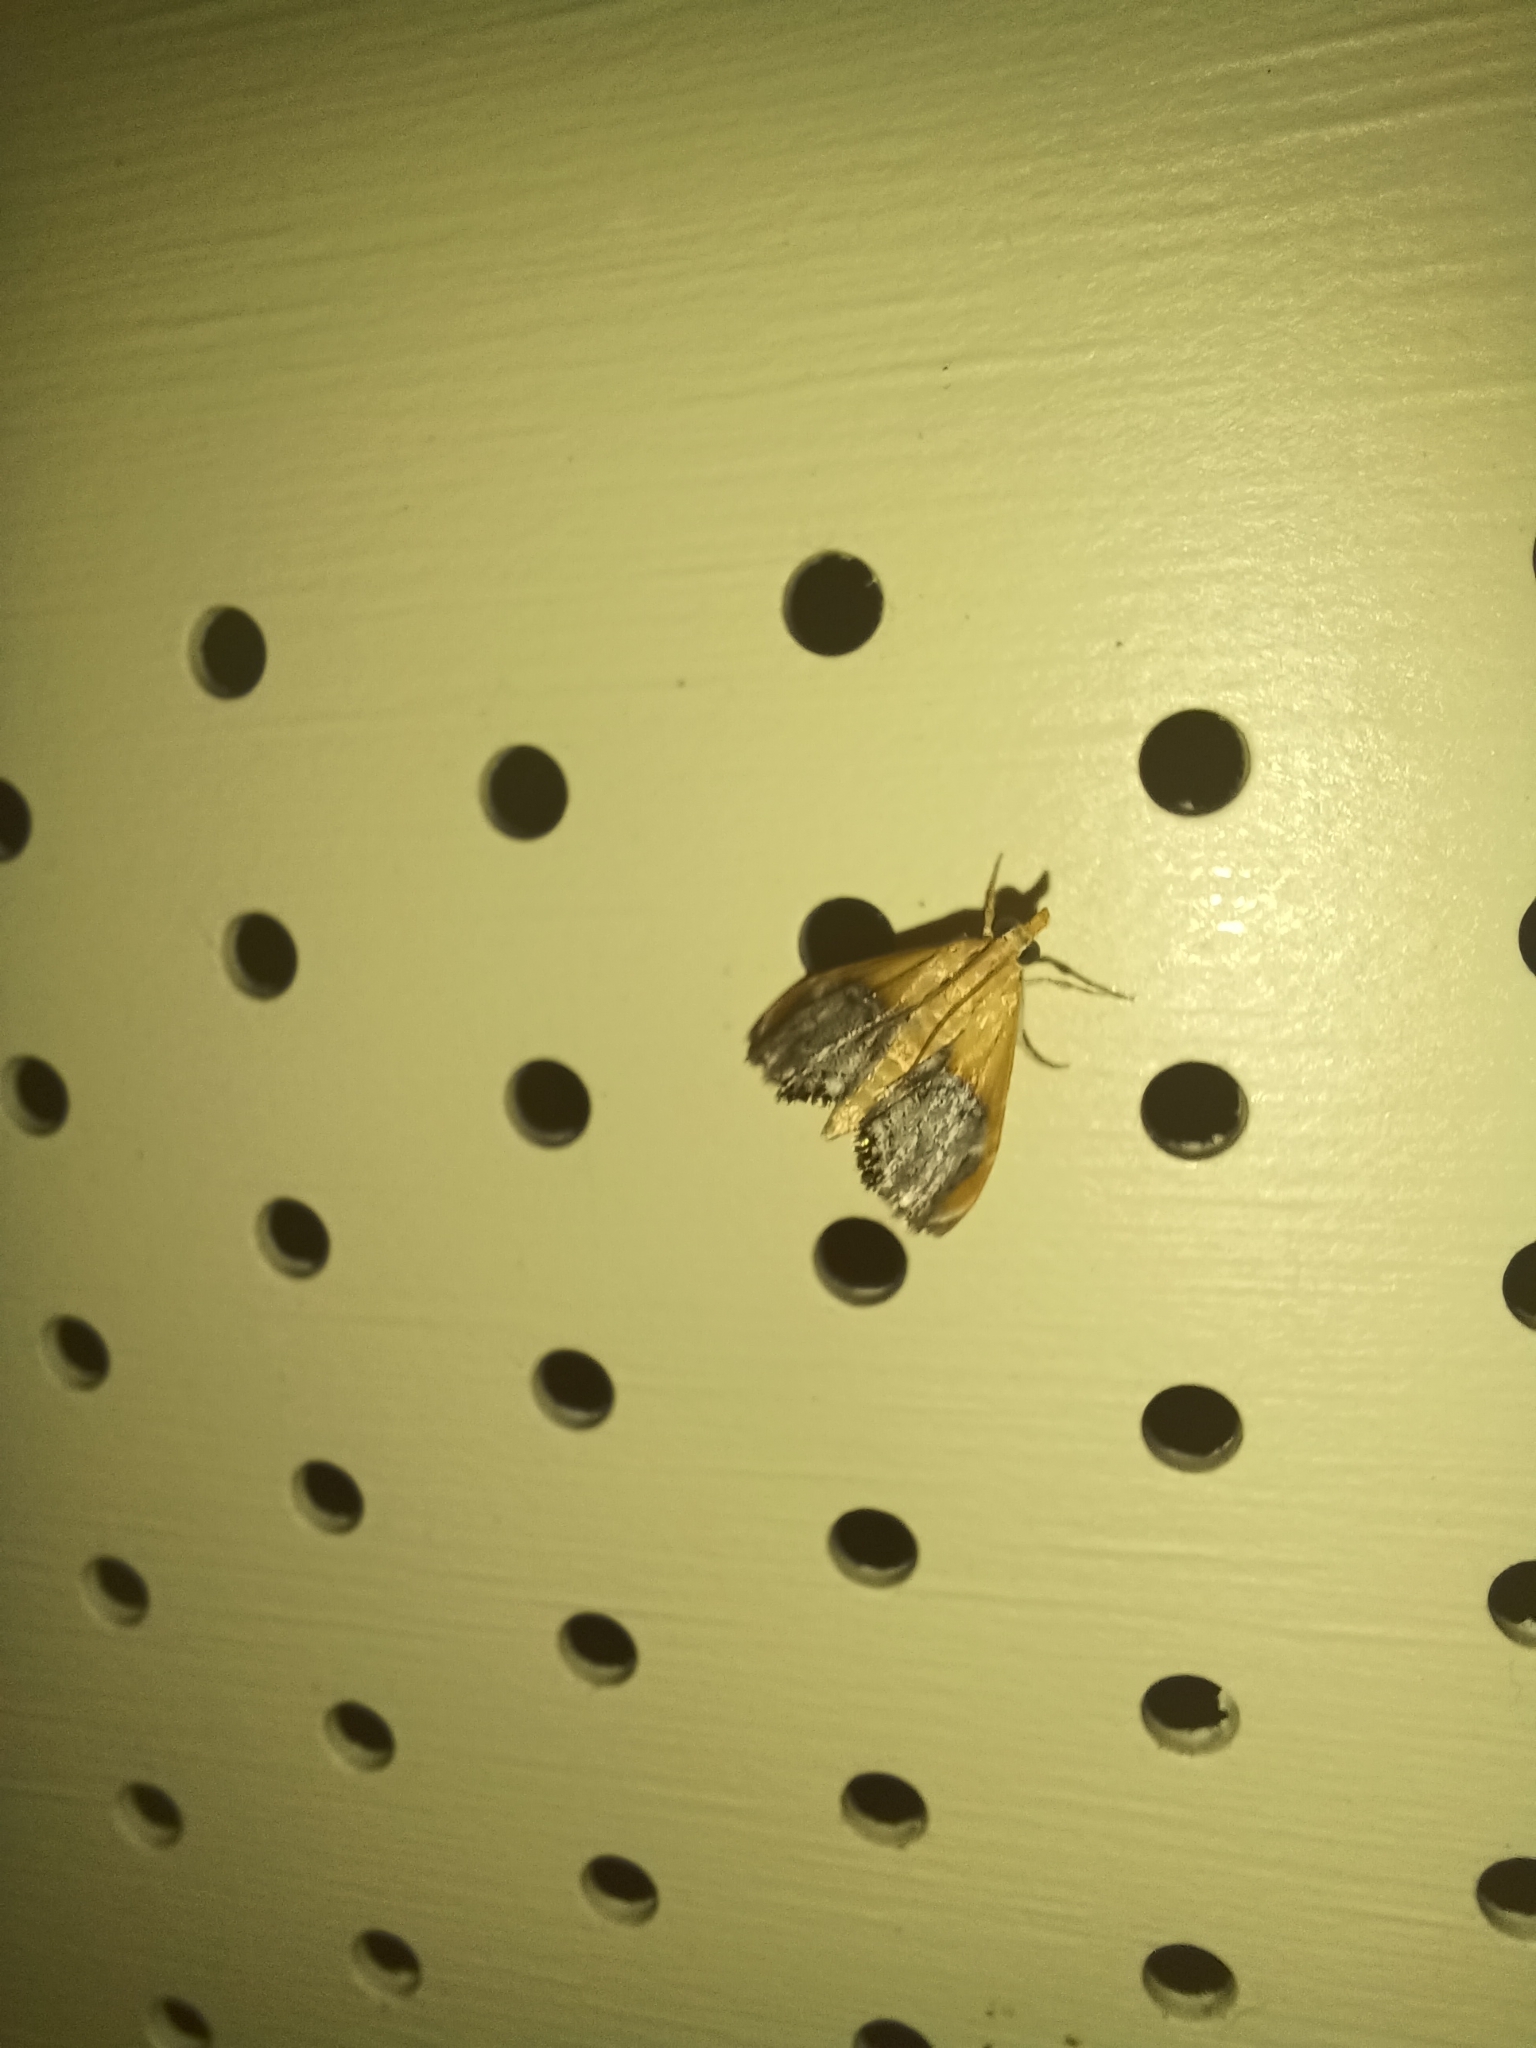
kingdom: Animalia
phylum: Arthropoda
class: Insecta
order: Lepidoptera
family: Crambidae
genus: Chalcoela
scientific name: Chalcoela iphitalis
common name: Sooty-winged chalcoela moth
